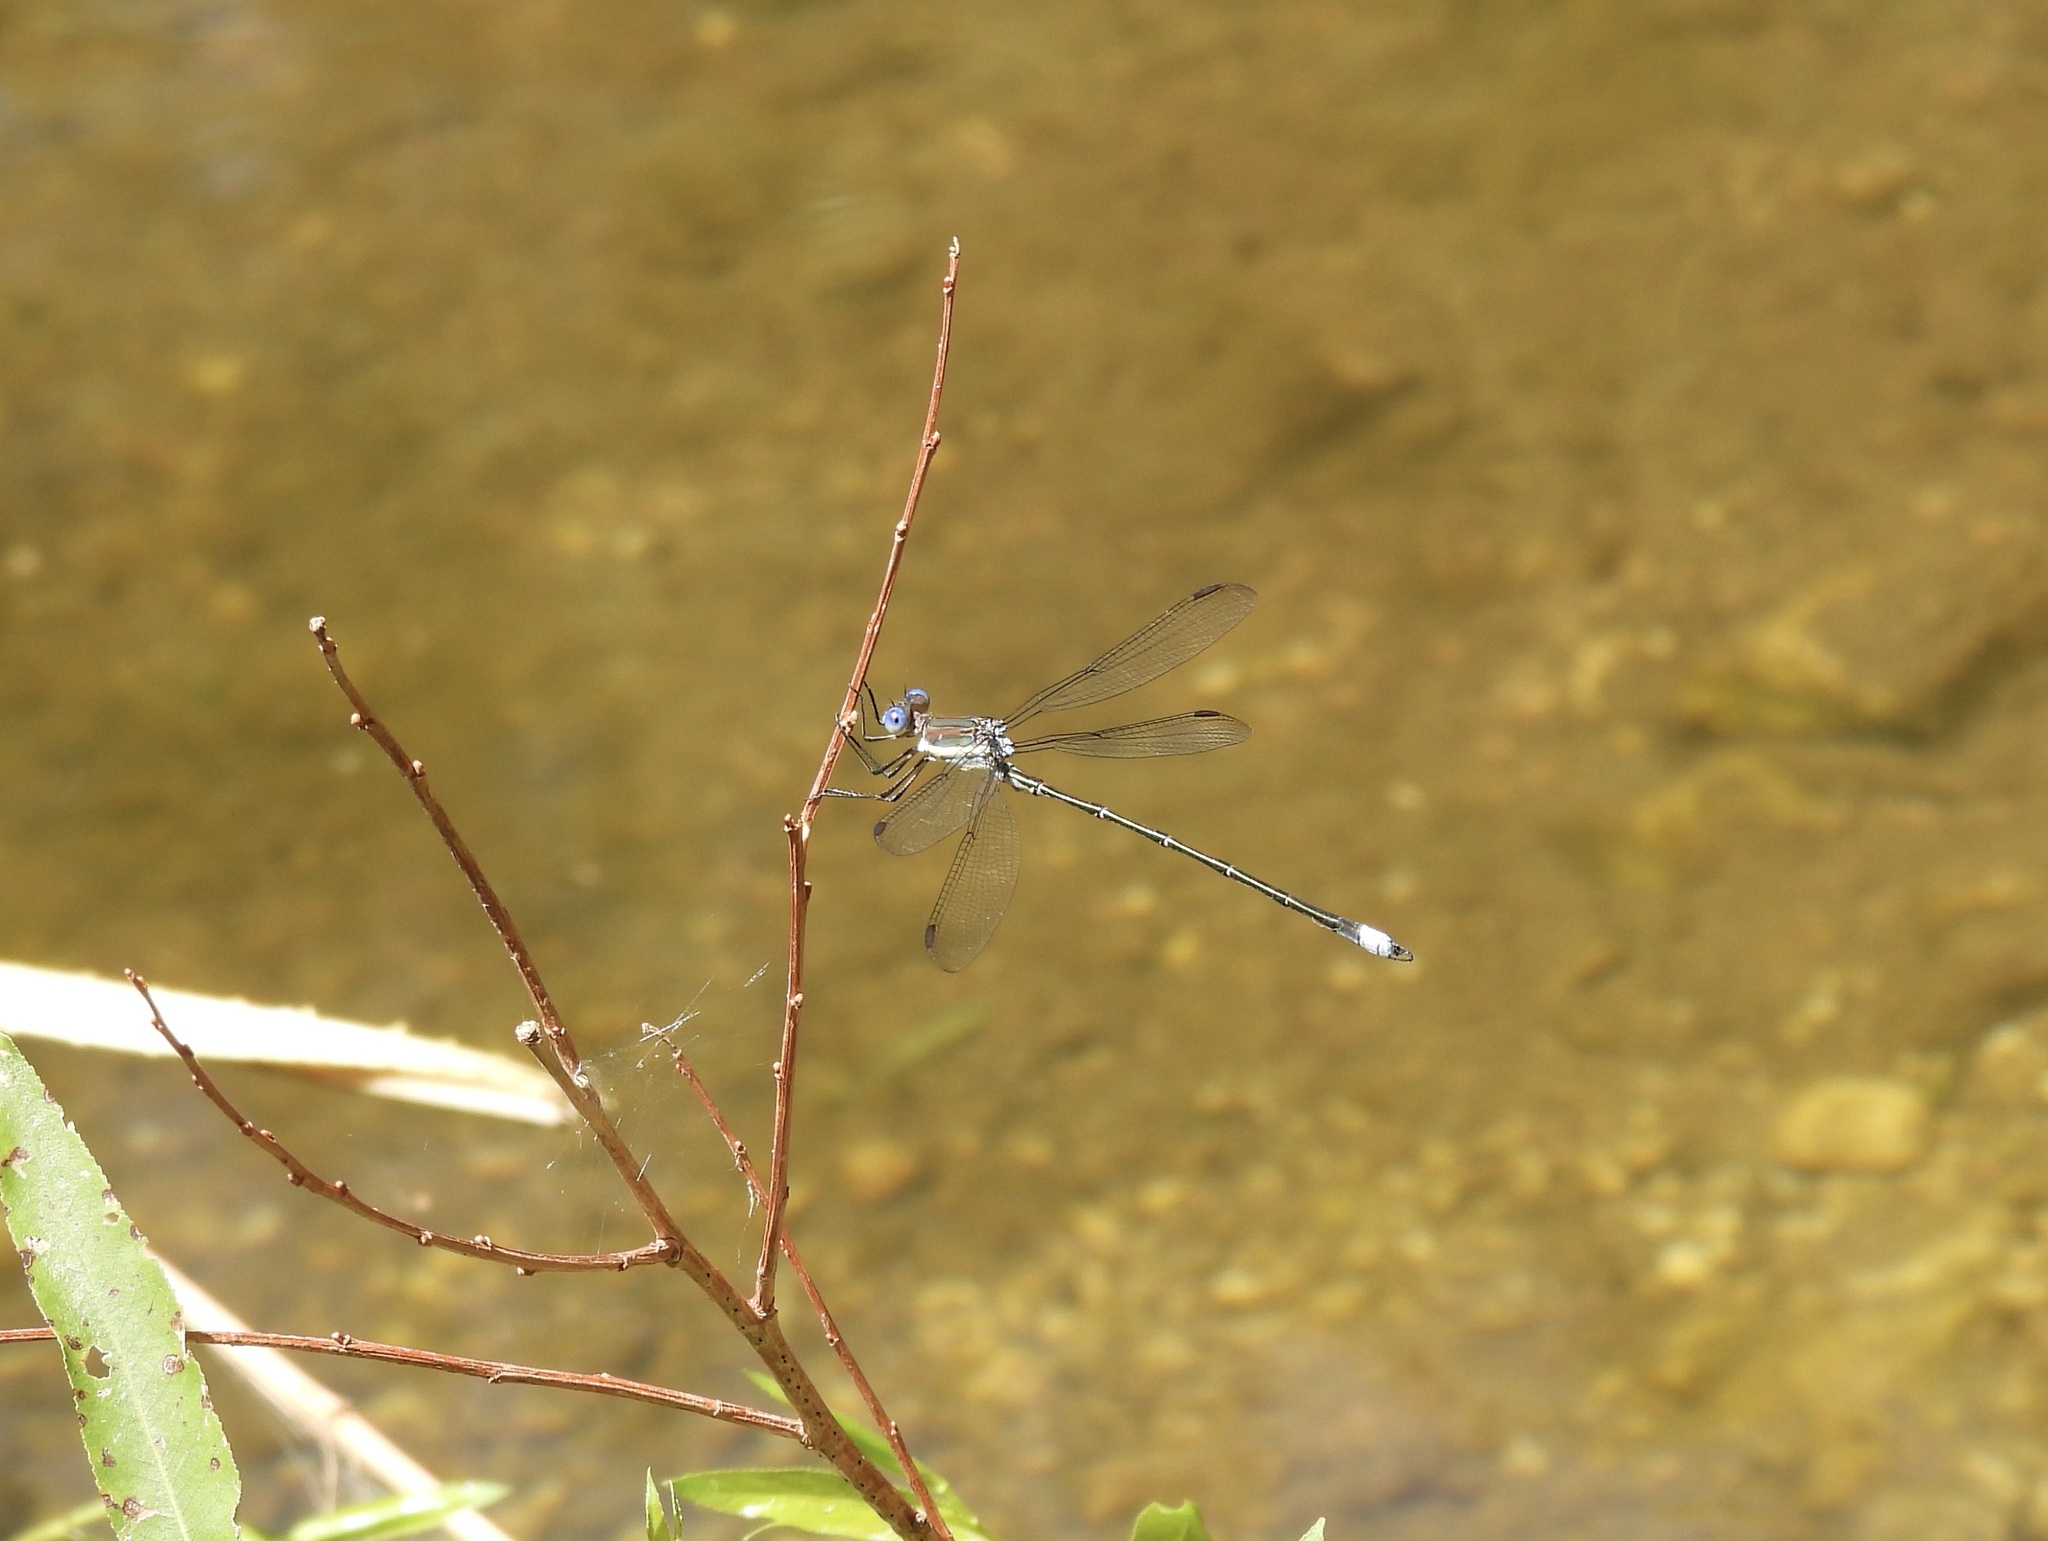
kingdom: Animalia
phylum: Arthropoda
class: Insecta
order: Odonata
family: Lestidae
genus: Archilestes
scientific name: Archilestes grandis
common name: Great spreadwing
